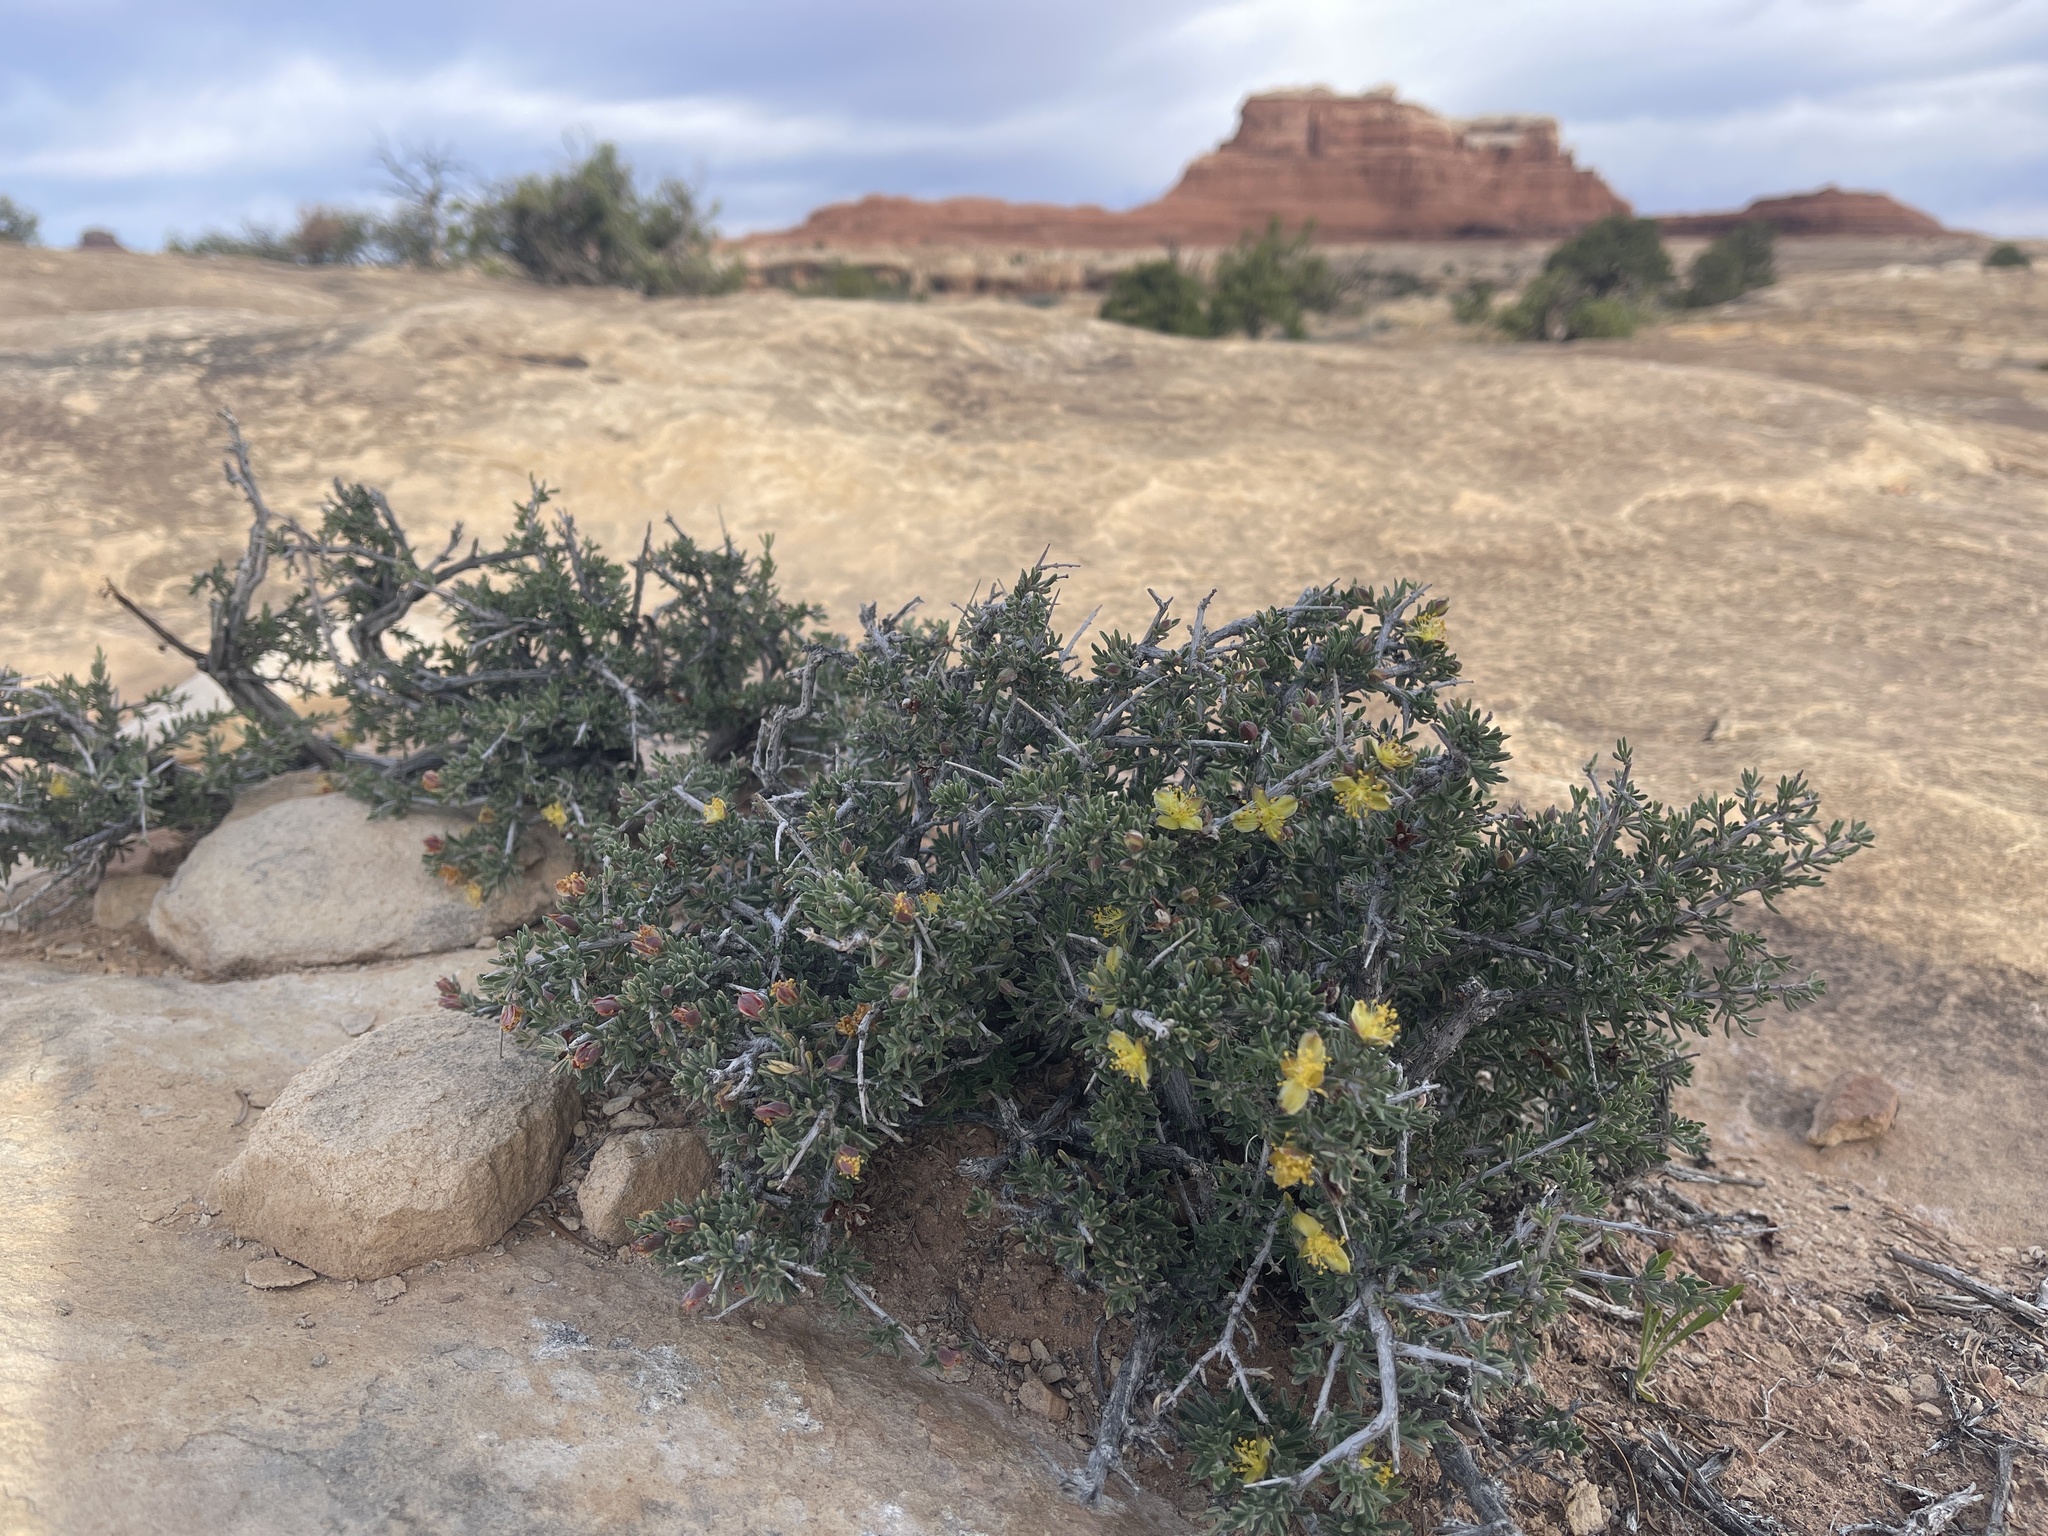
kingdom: Plantae
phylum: Tracheophyta
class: Magnoliopsida
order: Rosales
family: Rosaceae
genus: Coleogyne
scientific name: Coleogyne ramosissima
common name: Blackbrush
